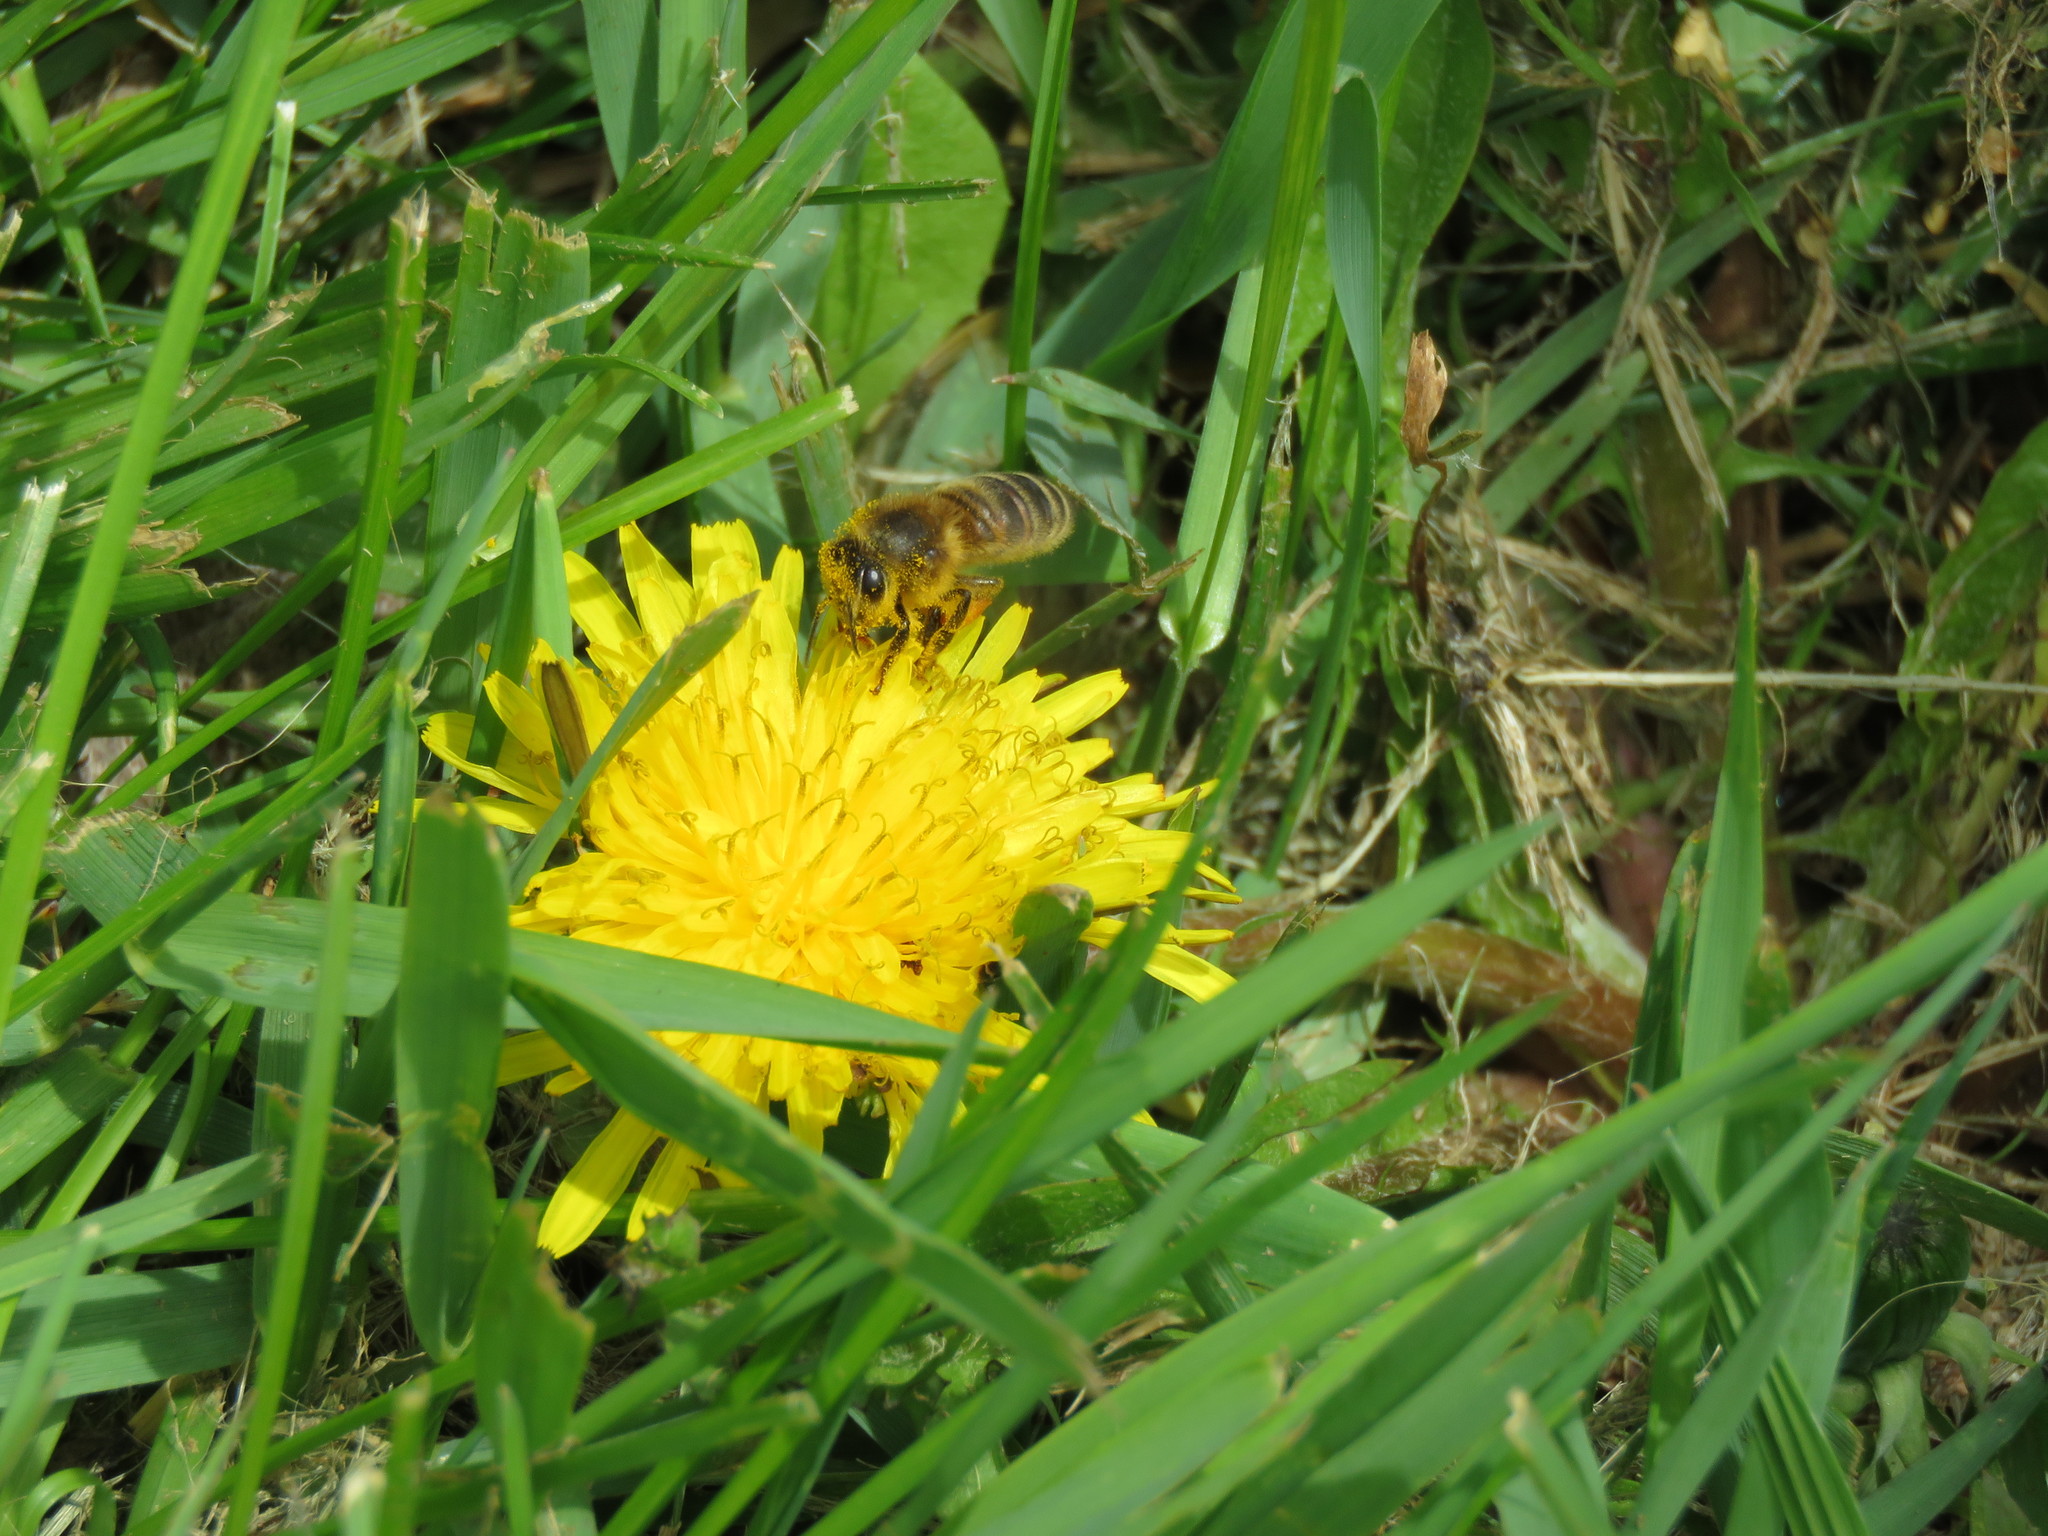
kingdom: Animalia
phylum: Arthropoda
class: Insecta
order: Hymenoptera
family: Apidae
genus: Apis
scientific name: Apis mellifera
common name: Honey bee
